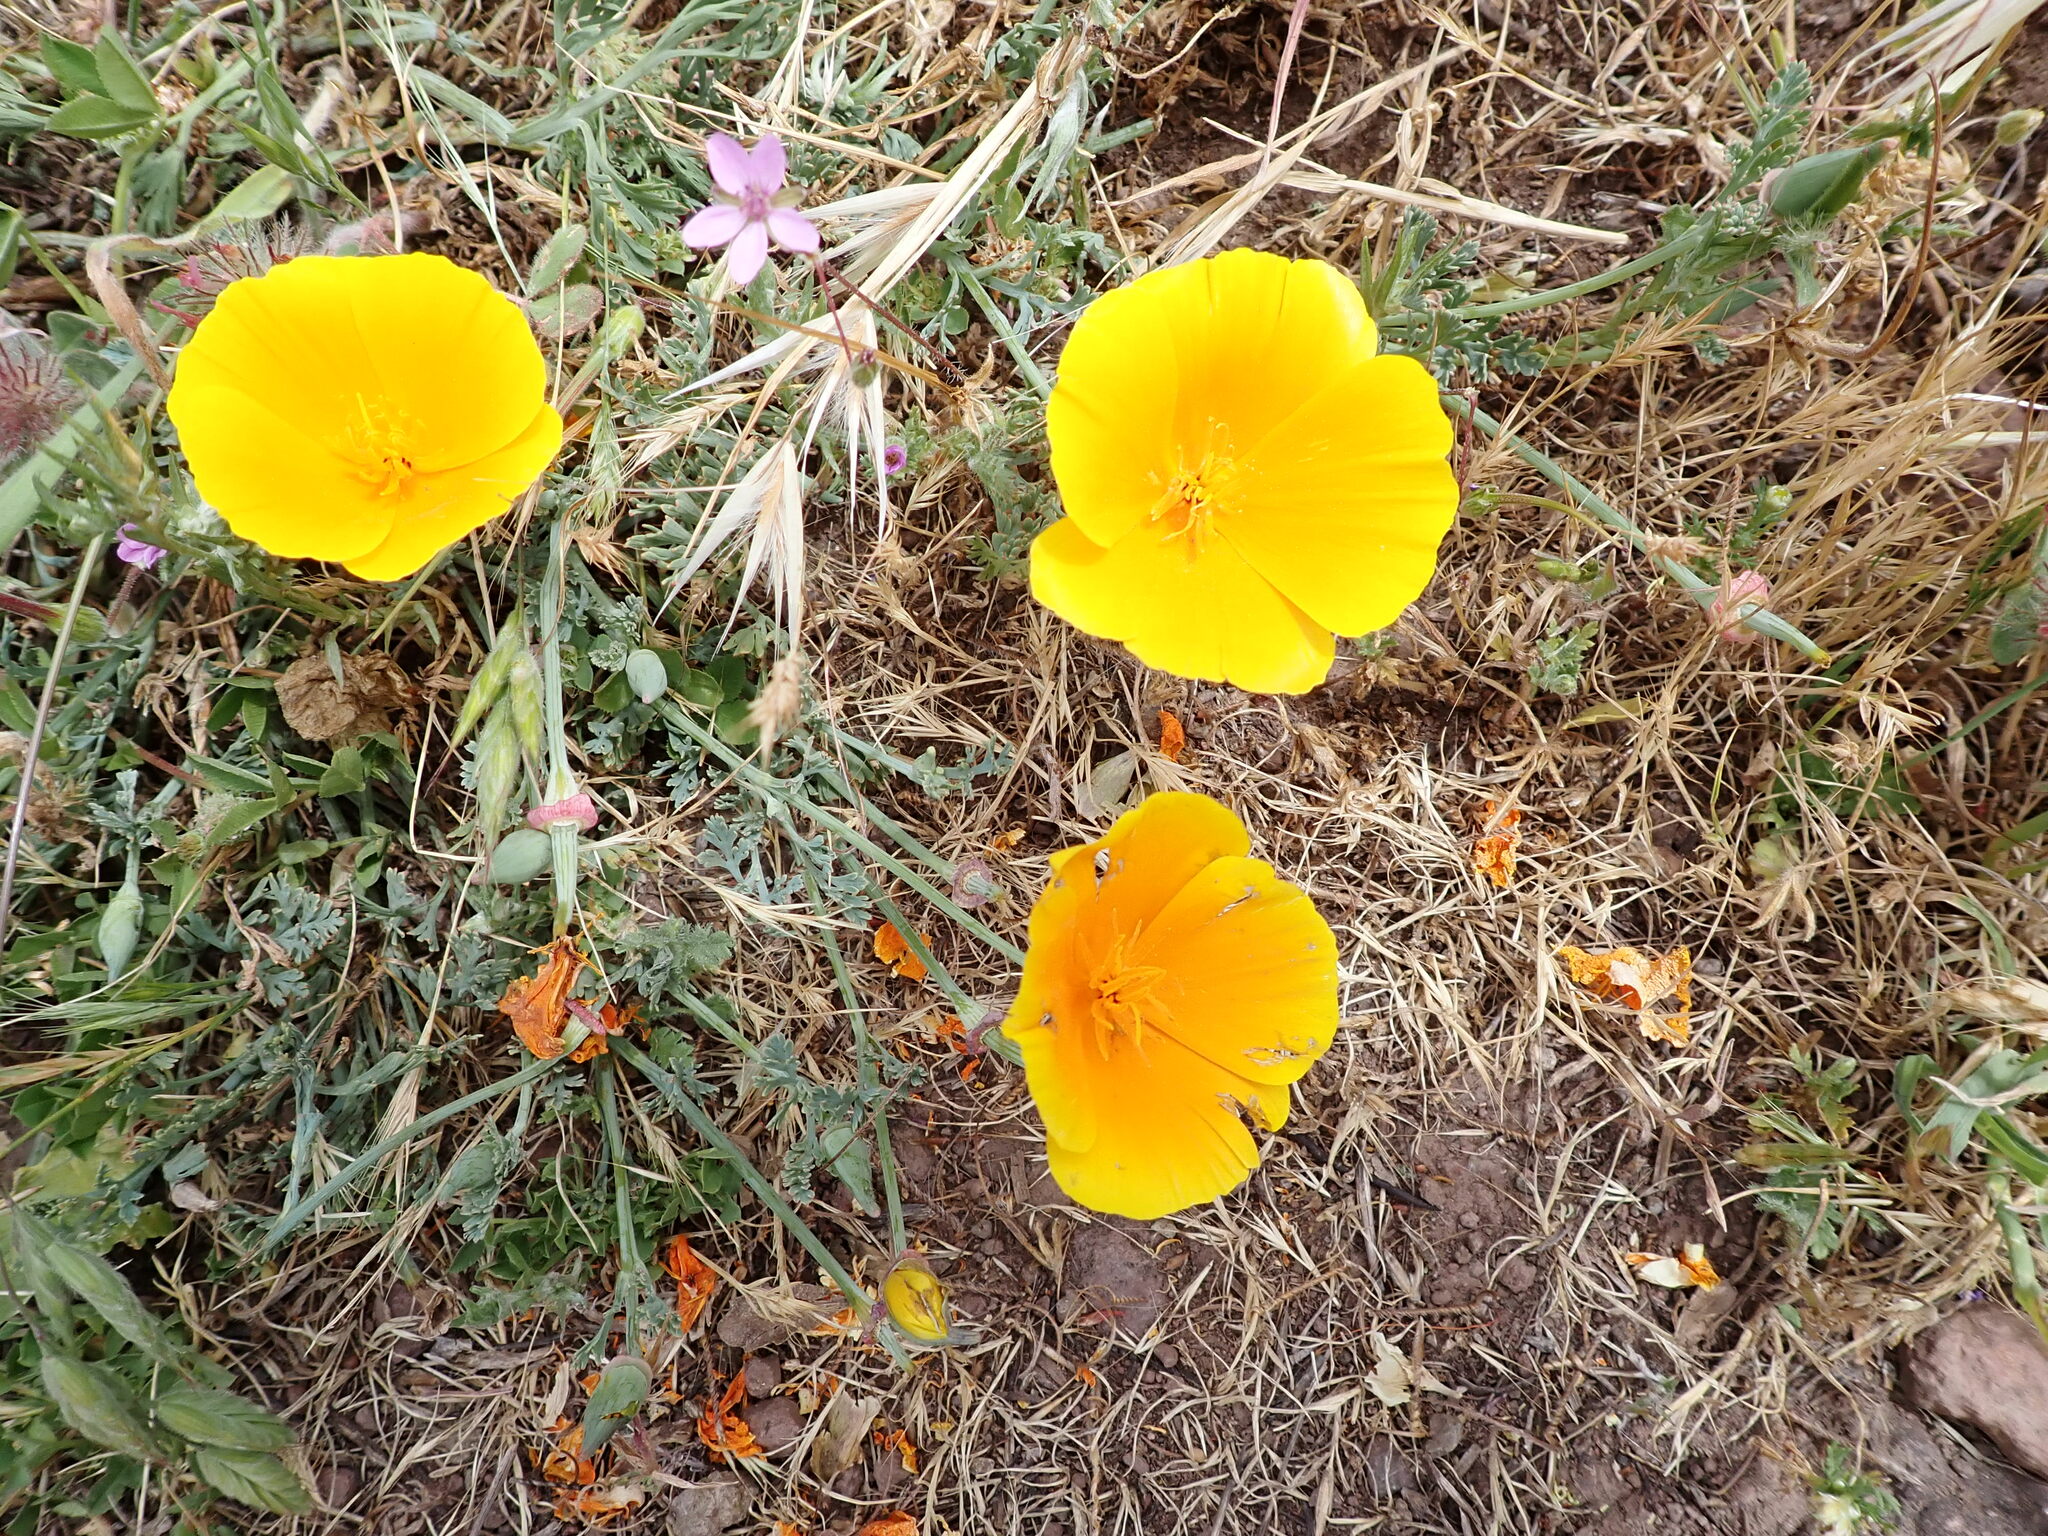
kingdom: Plantae
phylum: Tracheophyta
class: Magnoliopsida
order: Ranunculales
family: Papaveraceae
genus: Eschscholzia
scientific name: Eschscholzia californica
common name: California poppy
